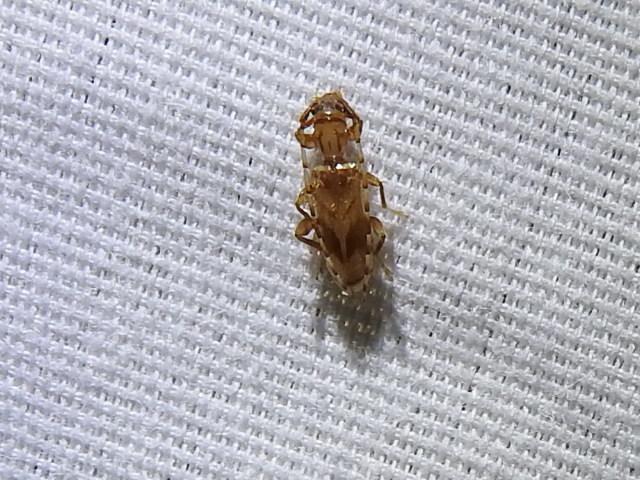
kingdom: Animalia
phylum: Arthropoda
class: Insecta
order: Coleoptera
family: Cerambycidae
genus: Obrium
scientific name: Obrium maculatum
